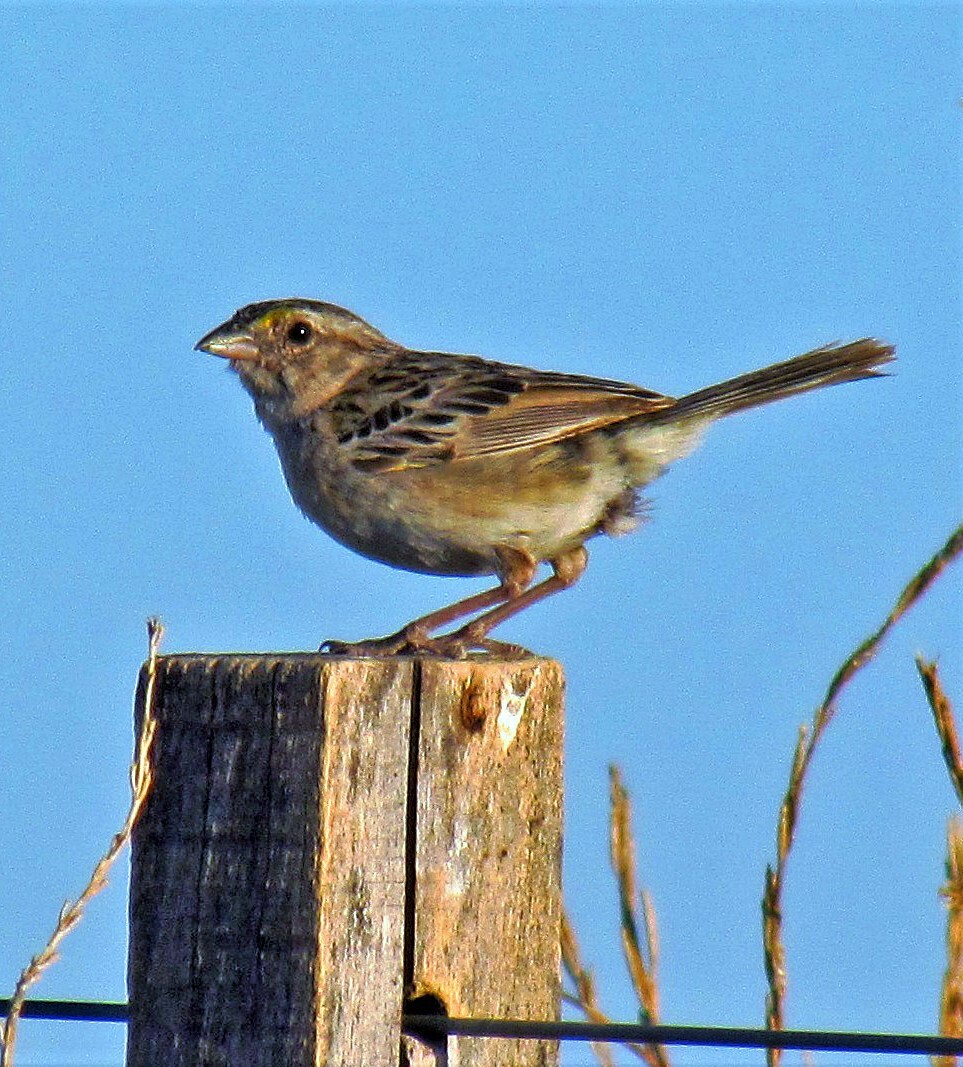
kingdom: Animalia
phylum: Chordata
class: Aves
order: Passeriformes
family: Passerellidae
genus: Ammodramus
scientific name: Ammodramus humeralis
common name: Grassland sparrow
